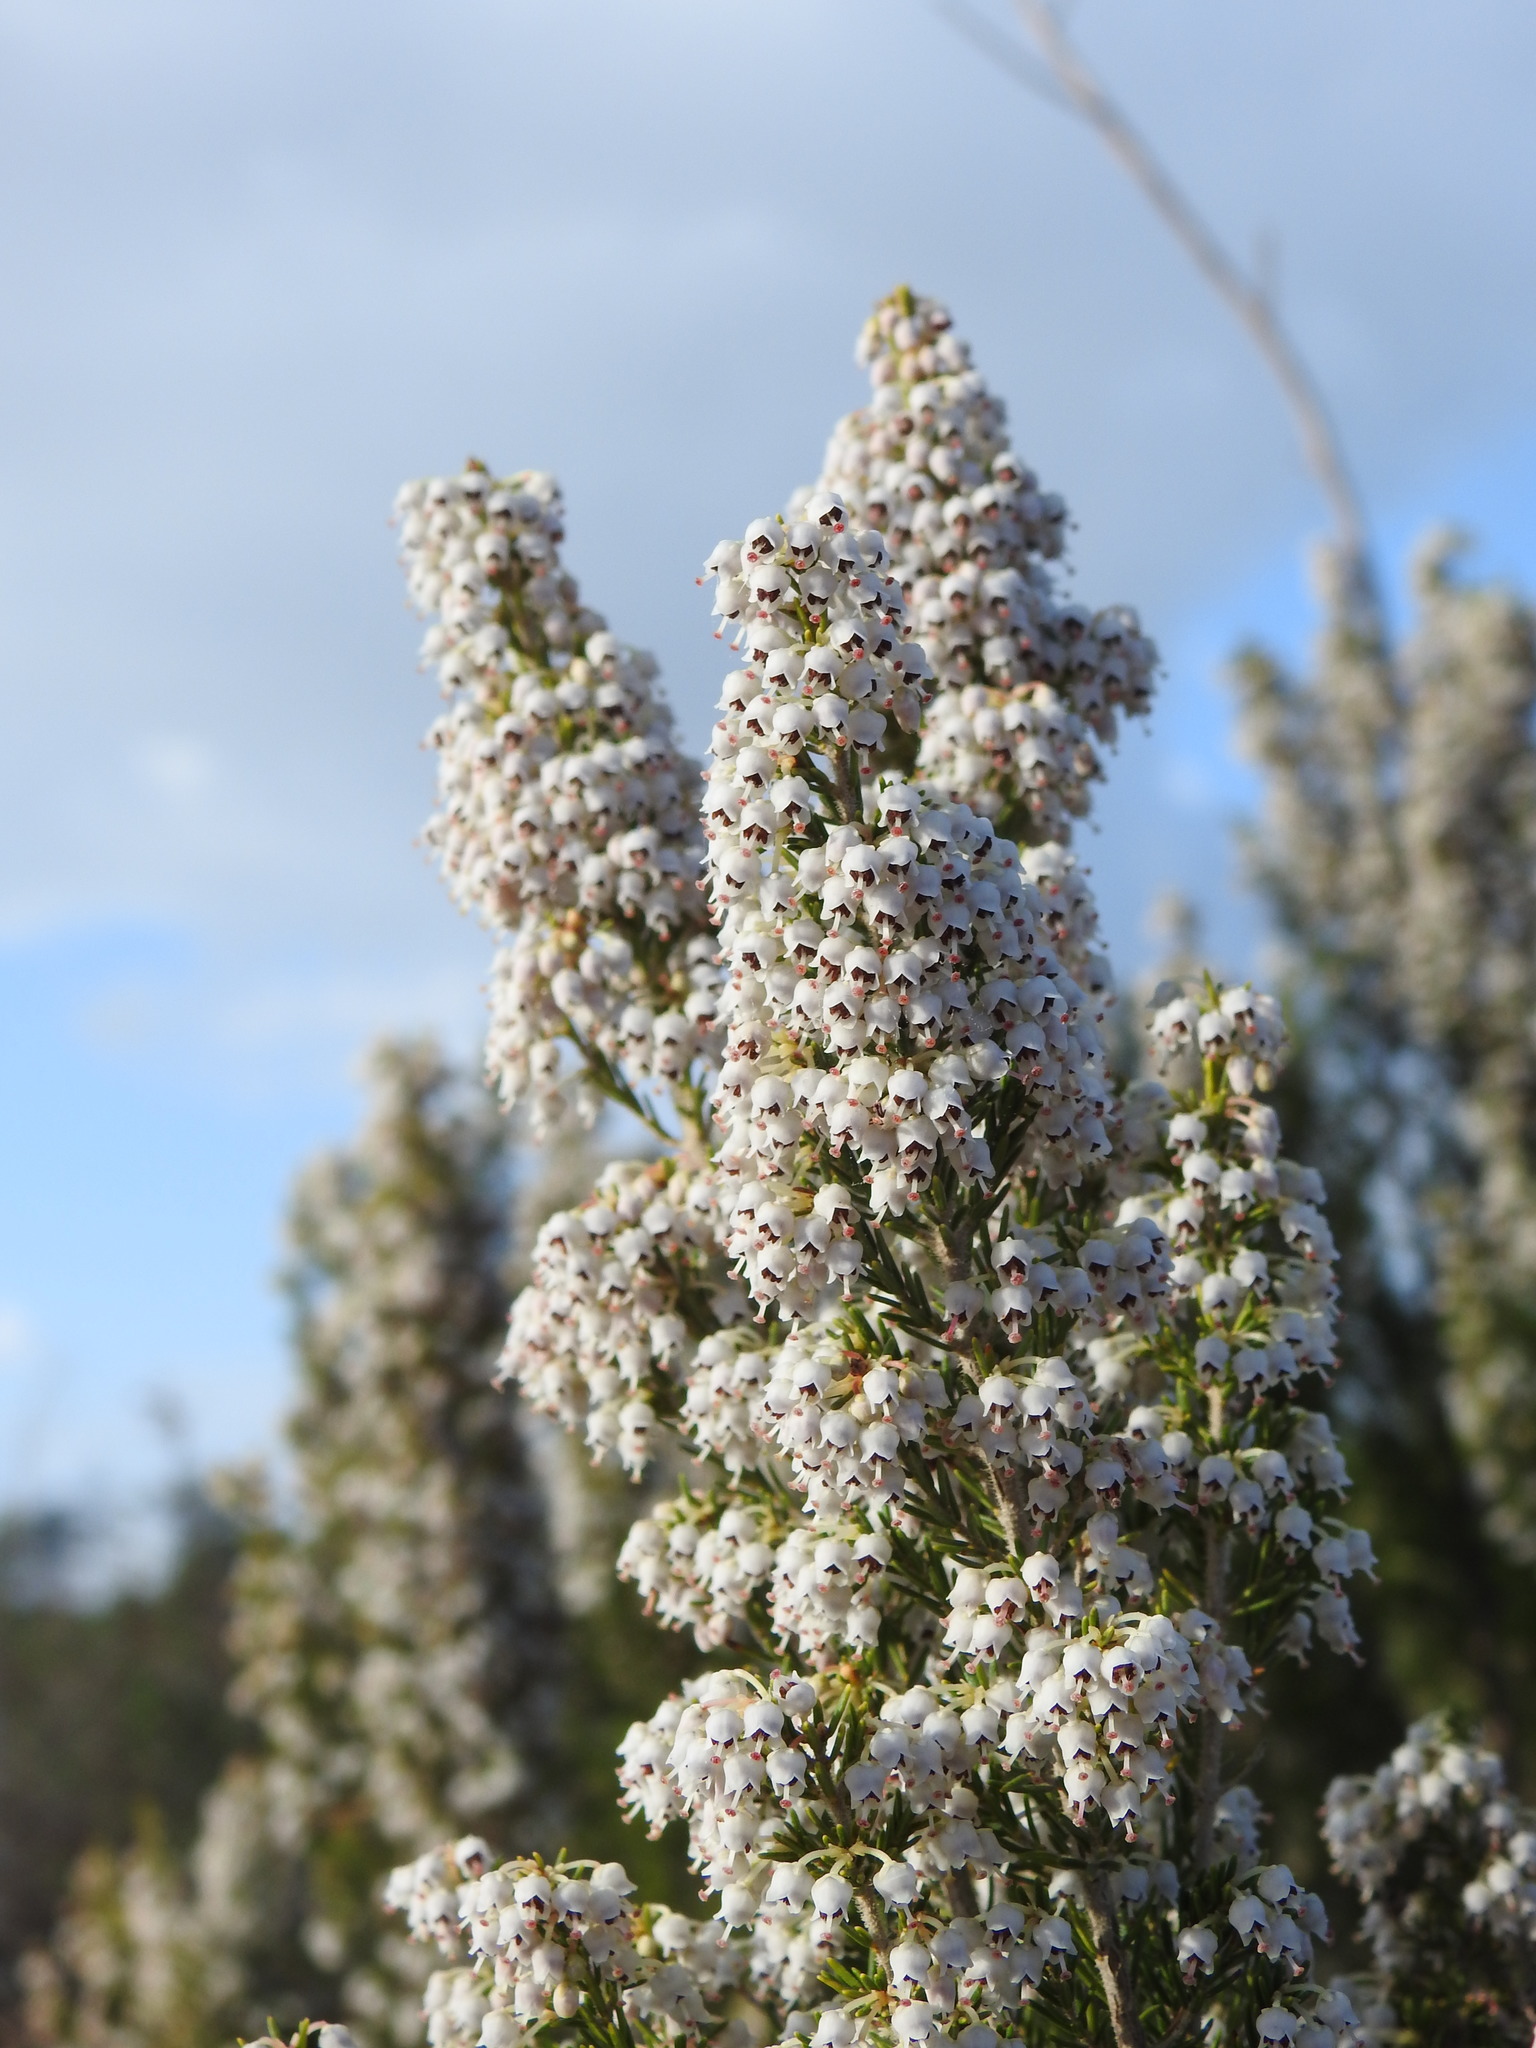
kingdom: Plantae
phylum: Tracheophyta
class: Magnoliopsida
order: Ericales
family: Ericaceae
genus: Erica
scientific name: Erica arborea
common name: Tree heath
